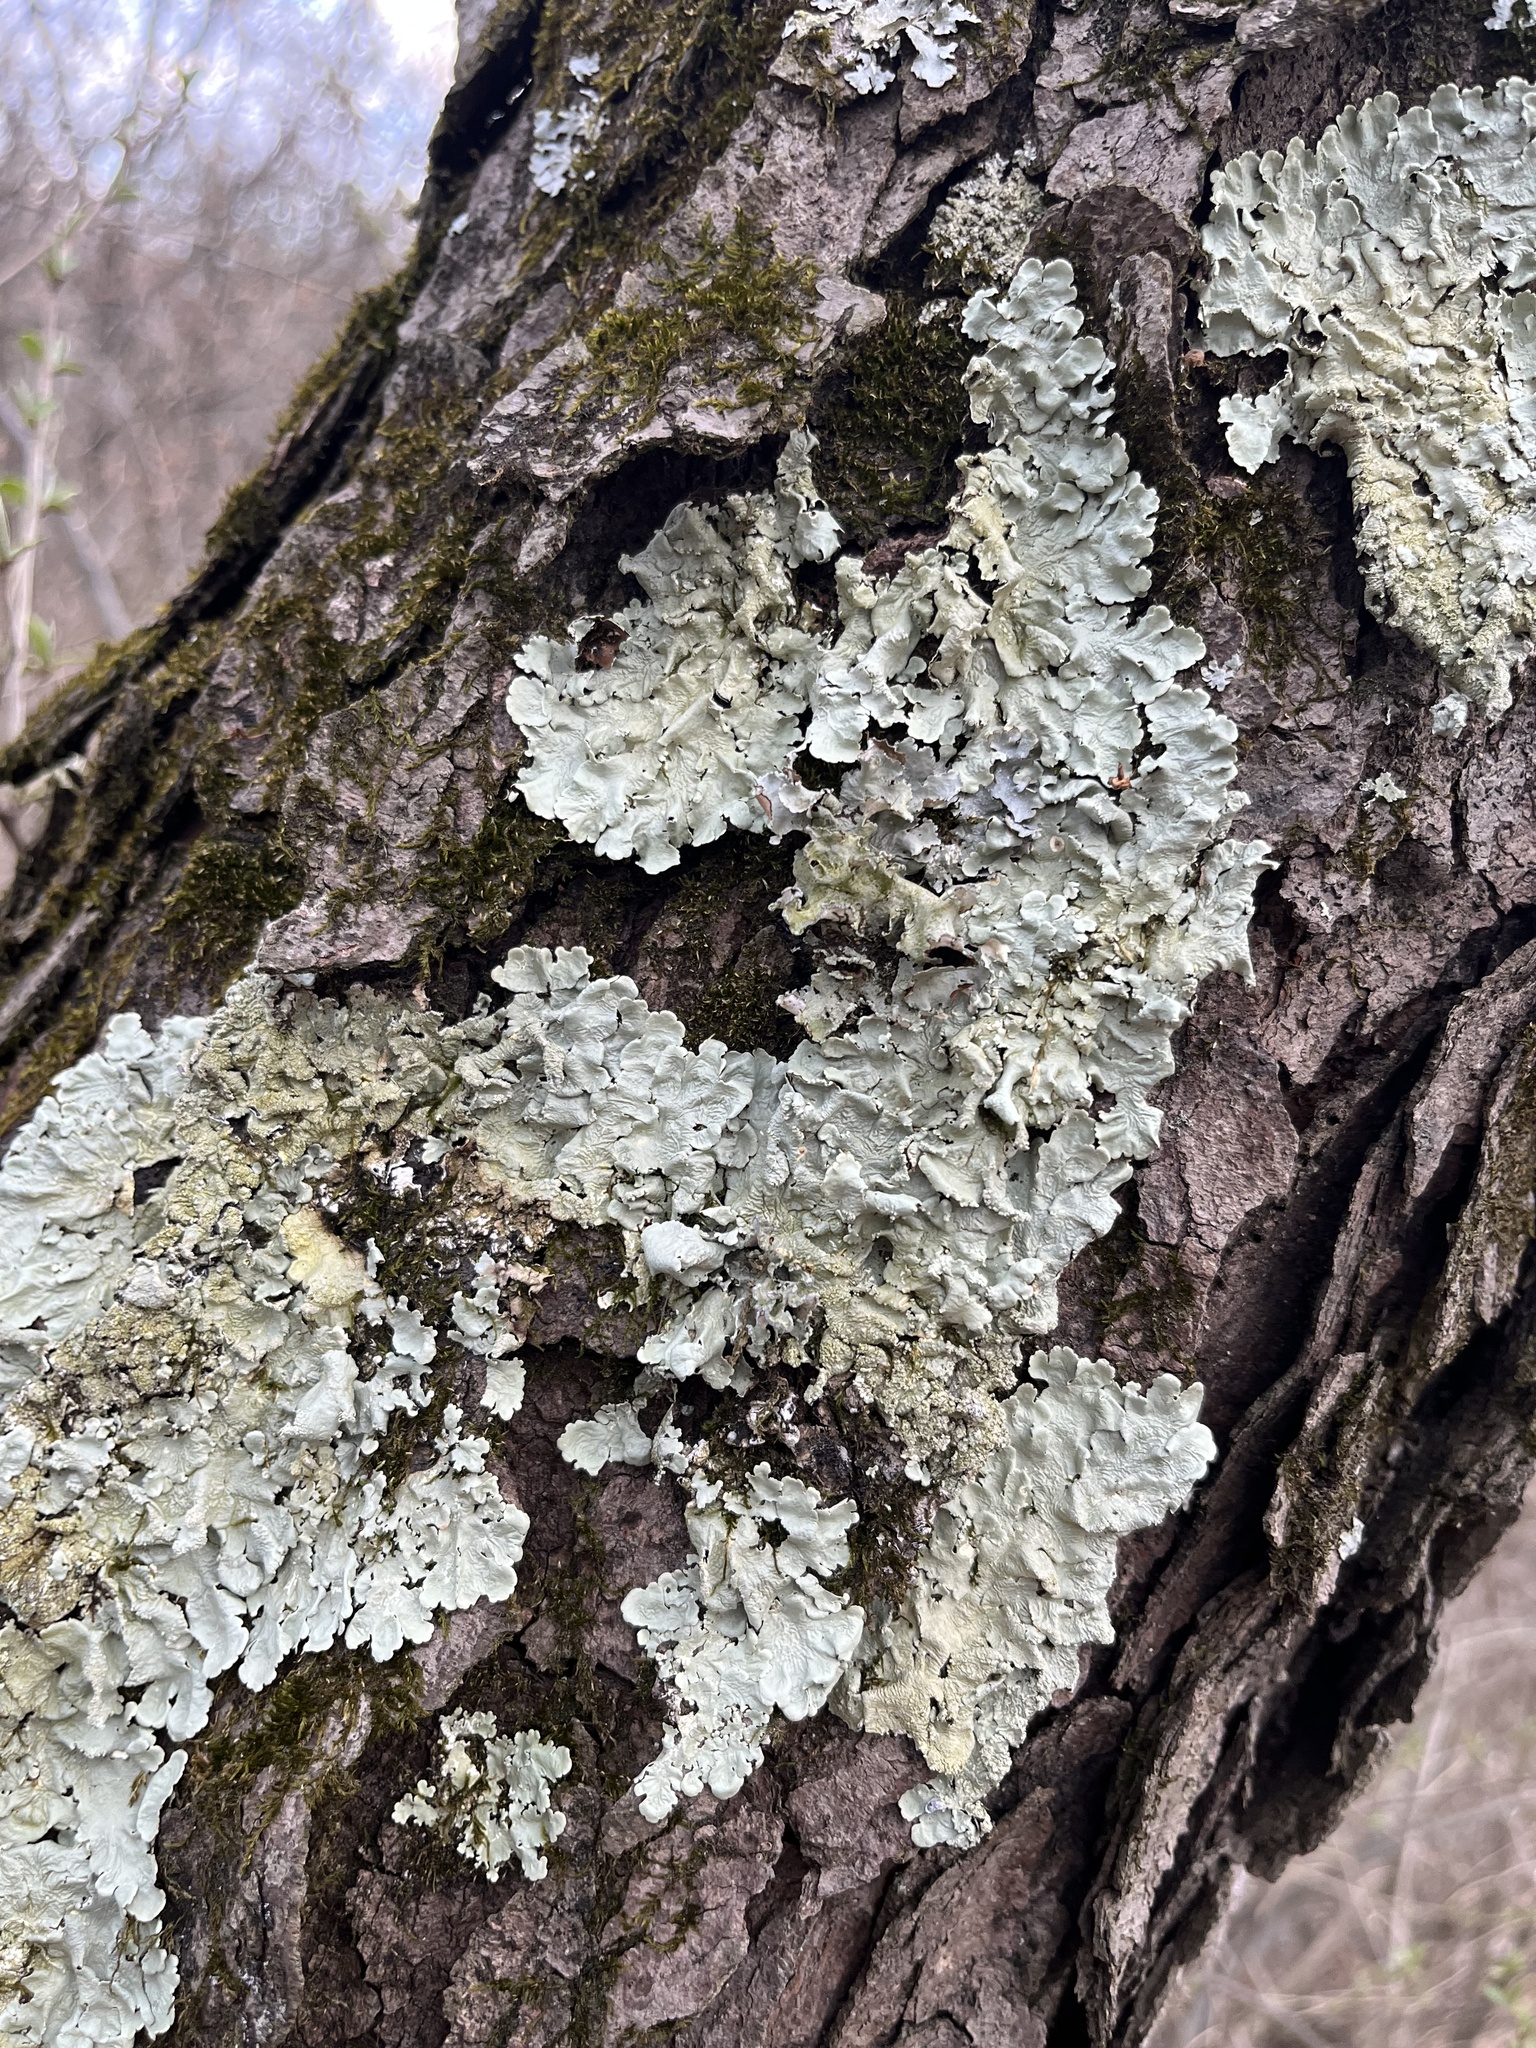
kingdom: Fungi
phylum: Ascomycota
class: Lecanoromycetes
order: Lecanorales
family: Parmeliaceae
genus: Flavoparmelia
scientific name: Flavoparmelia caperata
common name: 40-mile per hour lichen
